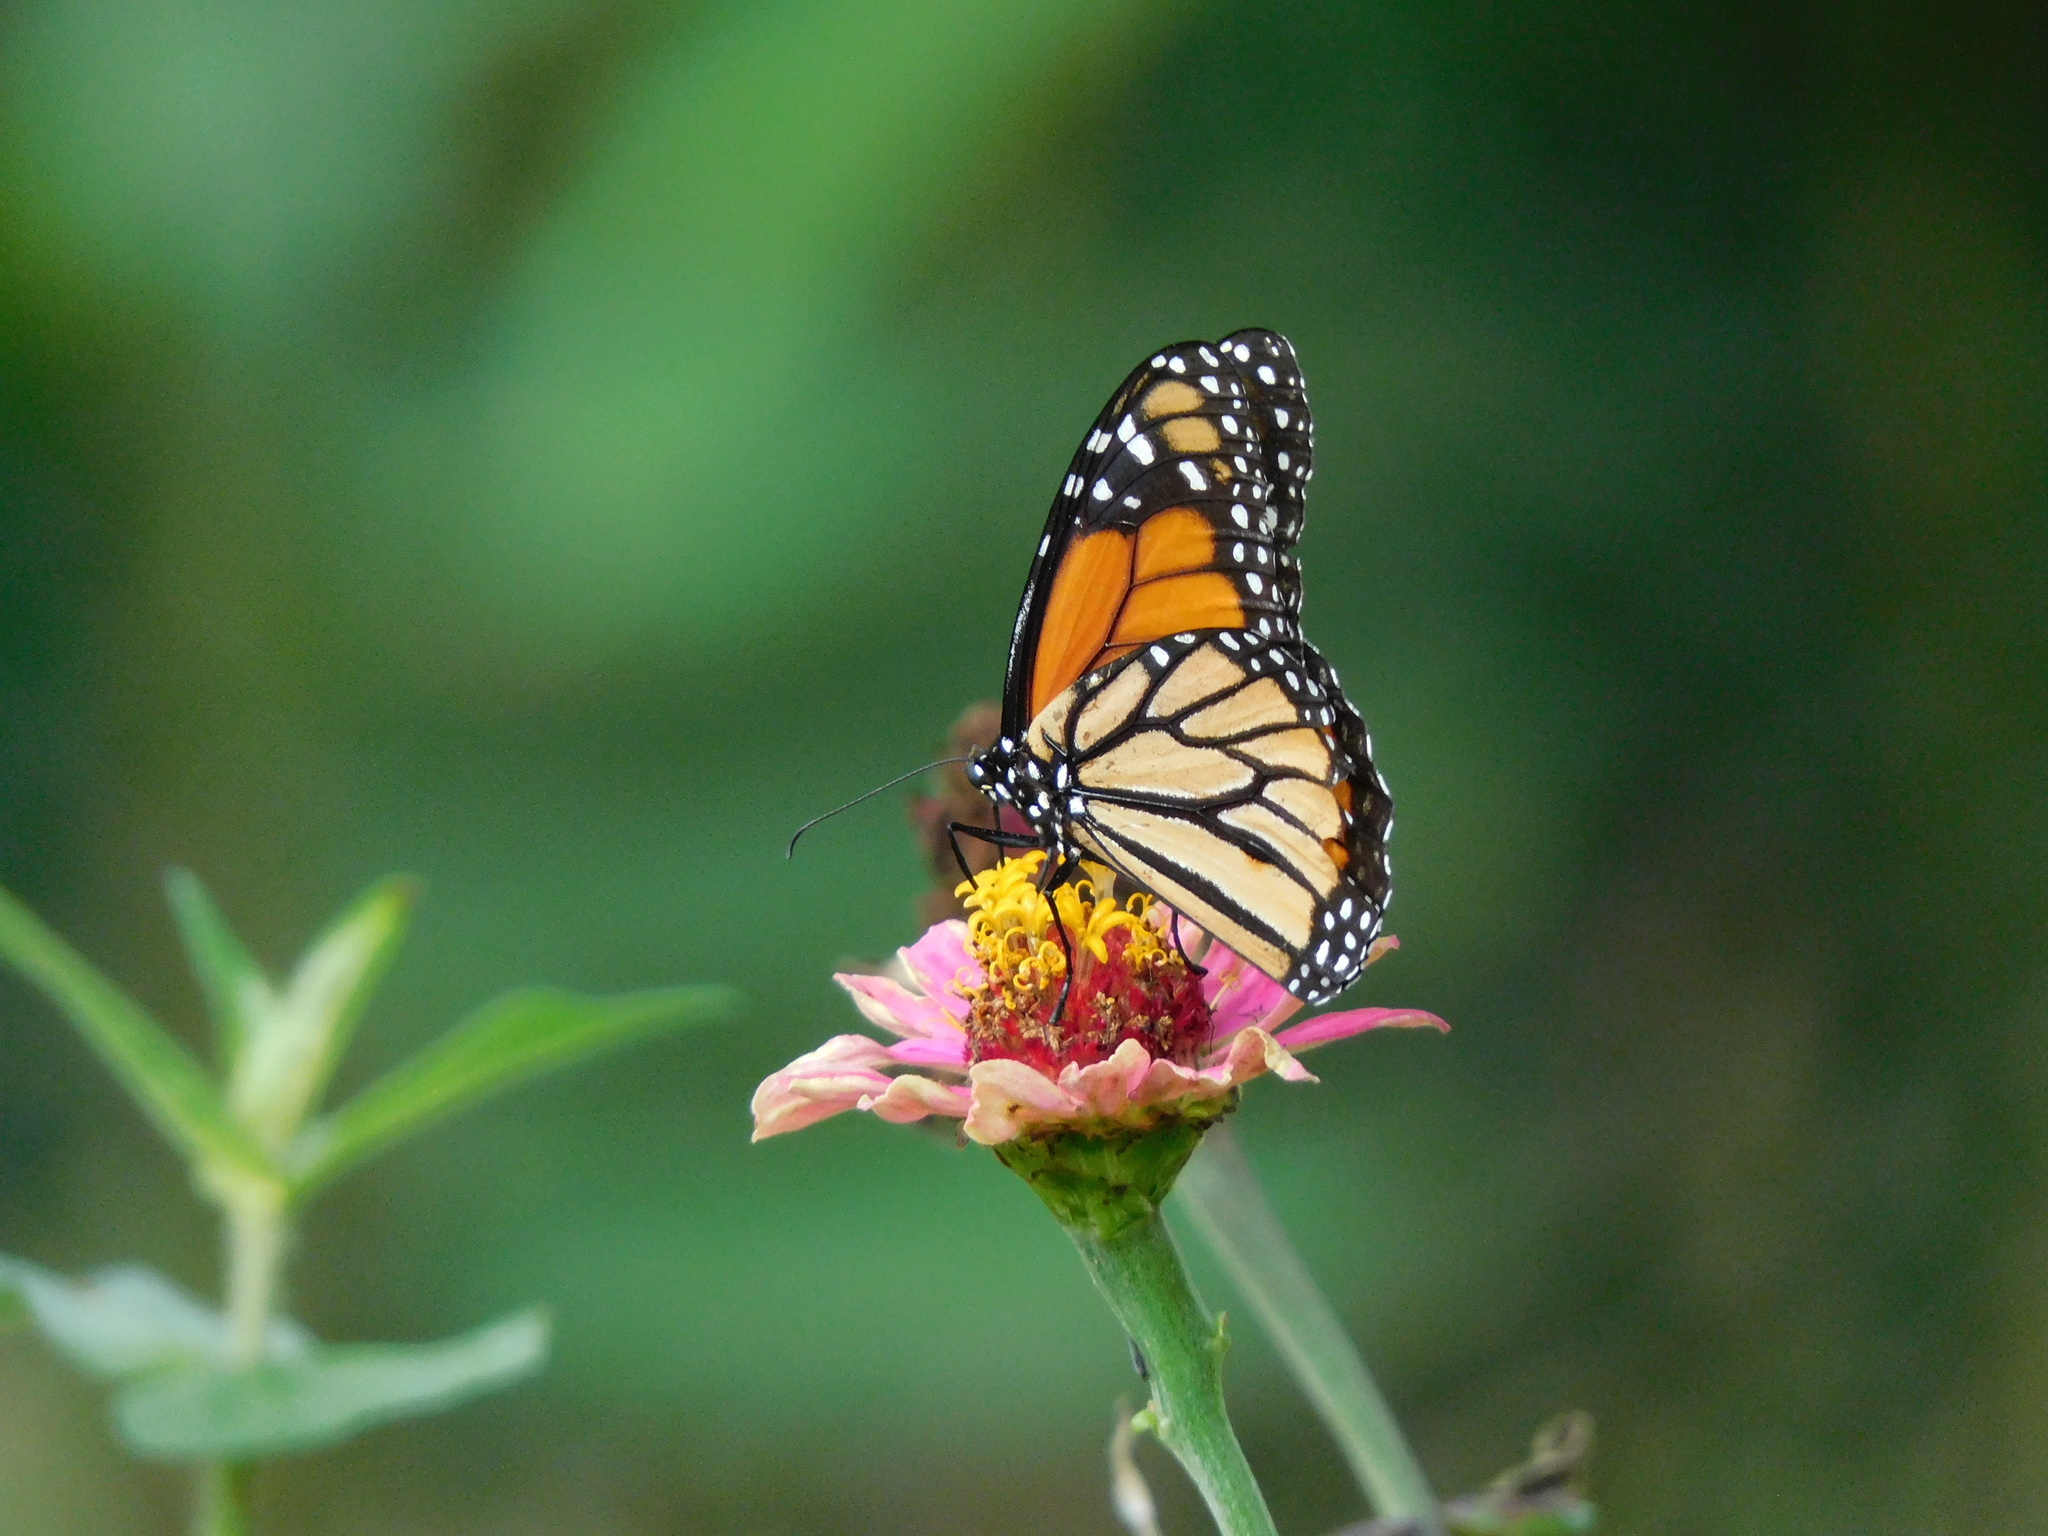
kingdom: Animalia
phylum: Arthropoda
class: Insecta
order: Lepidoptera
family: Nymphalidae
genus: Danaus
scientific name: Danaus plexippus
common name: Monarch
